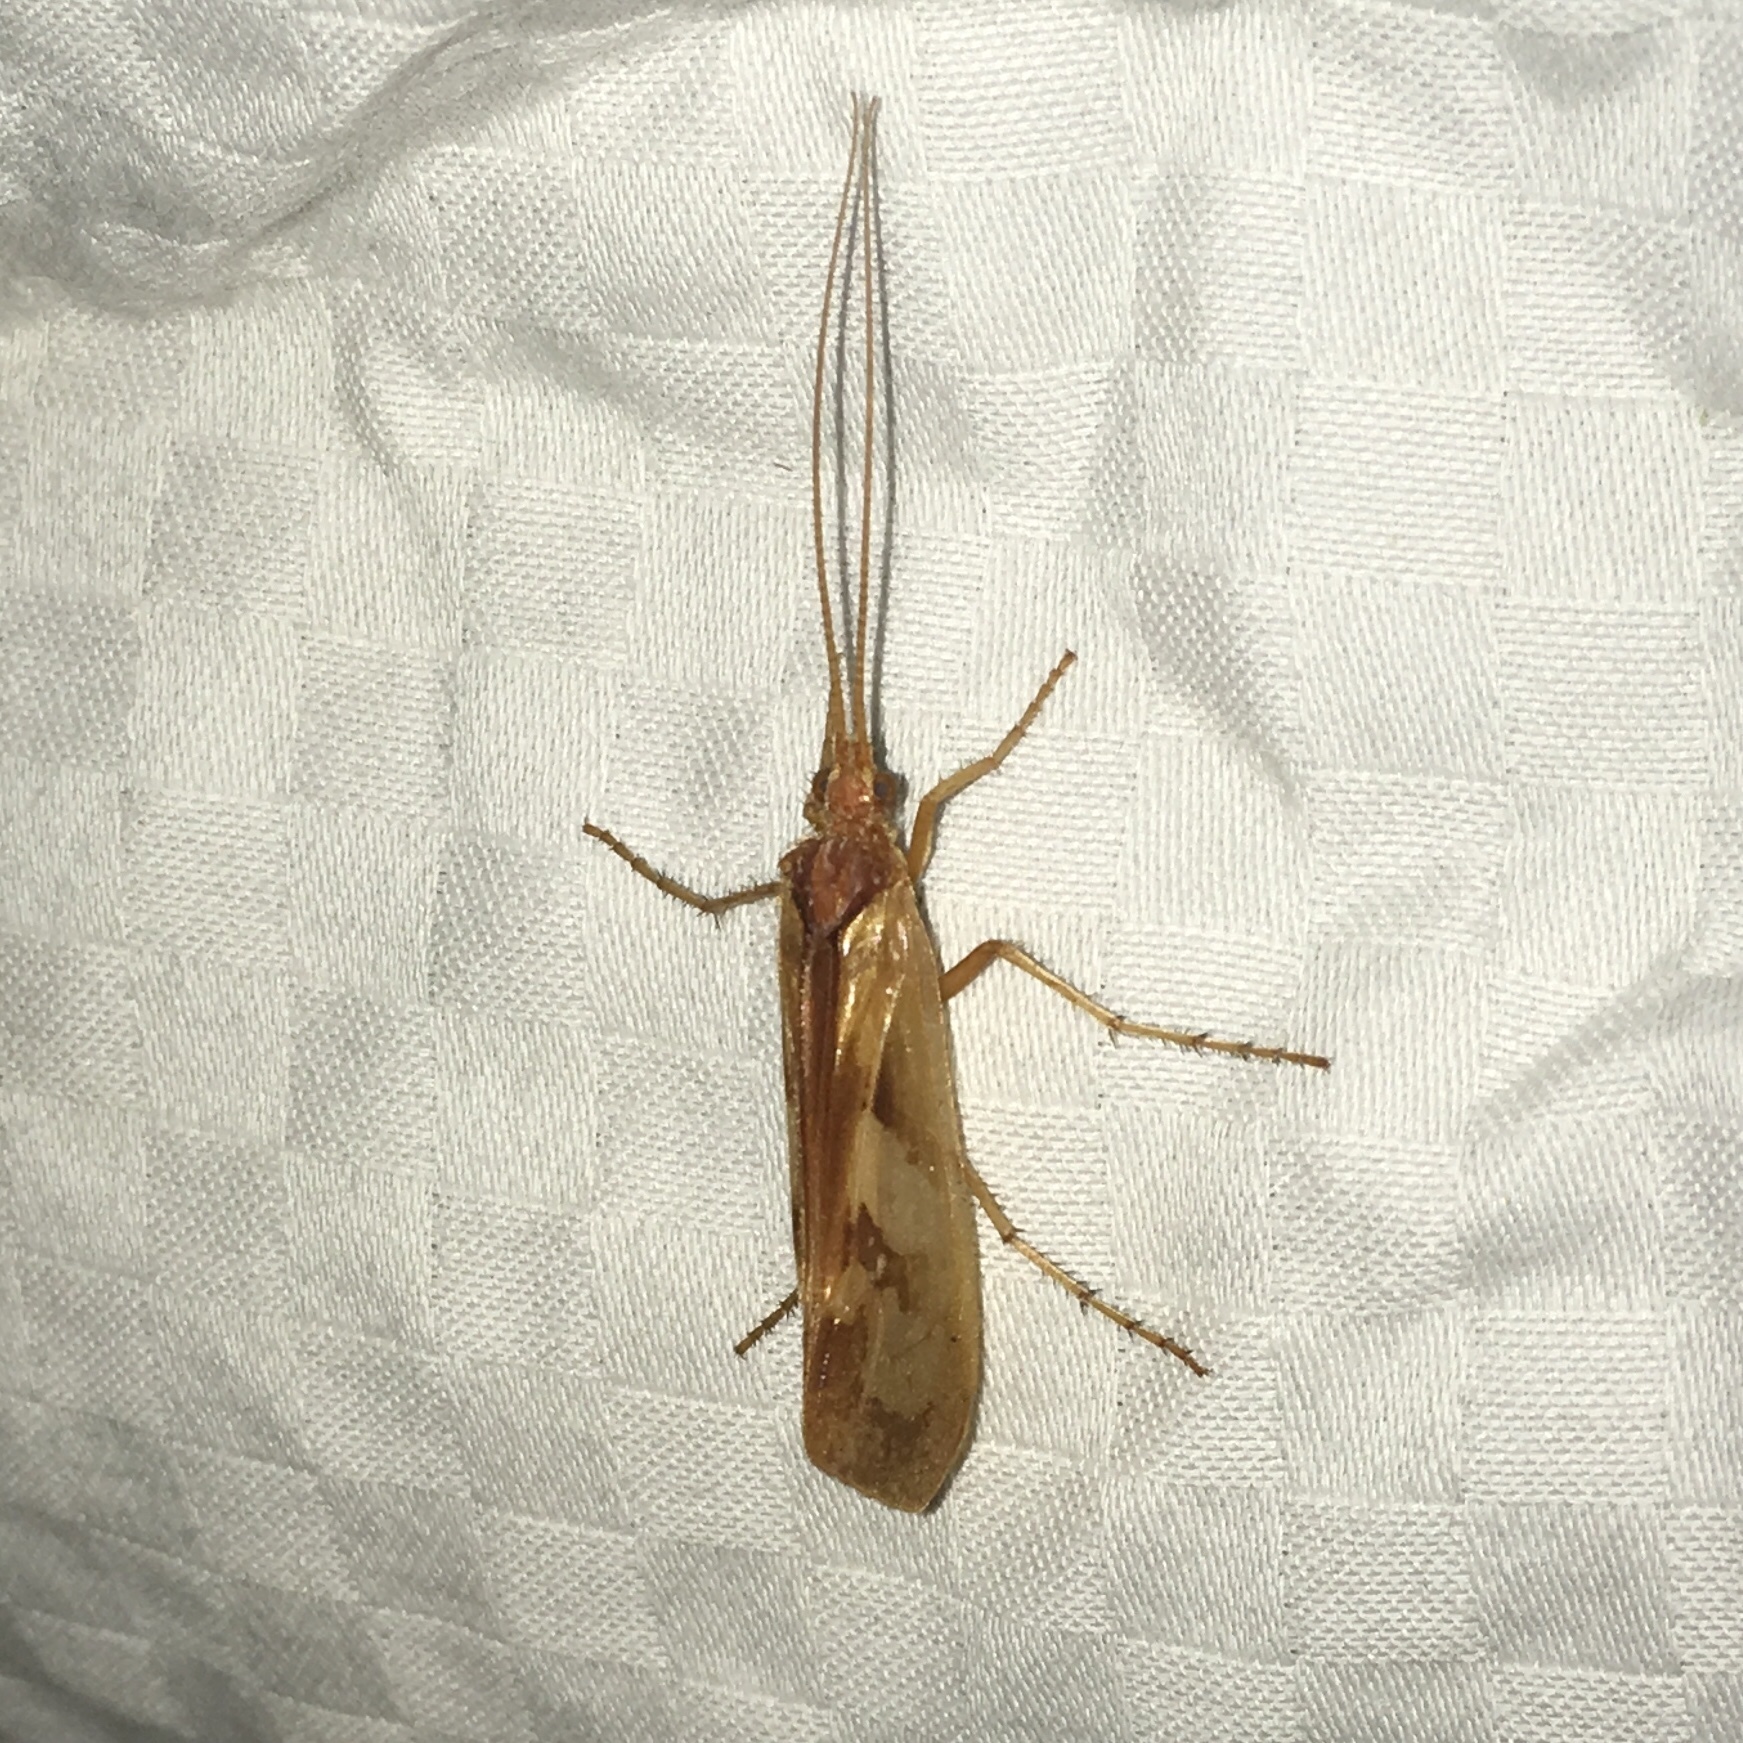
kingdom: Animalia
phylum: Arthropoda
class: Insecta
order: Trichoptera
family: Limnephilidae
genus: Limnephilus
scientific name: Limnephilus rhombicus
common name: Diamond northern caddisfly
